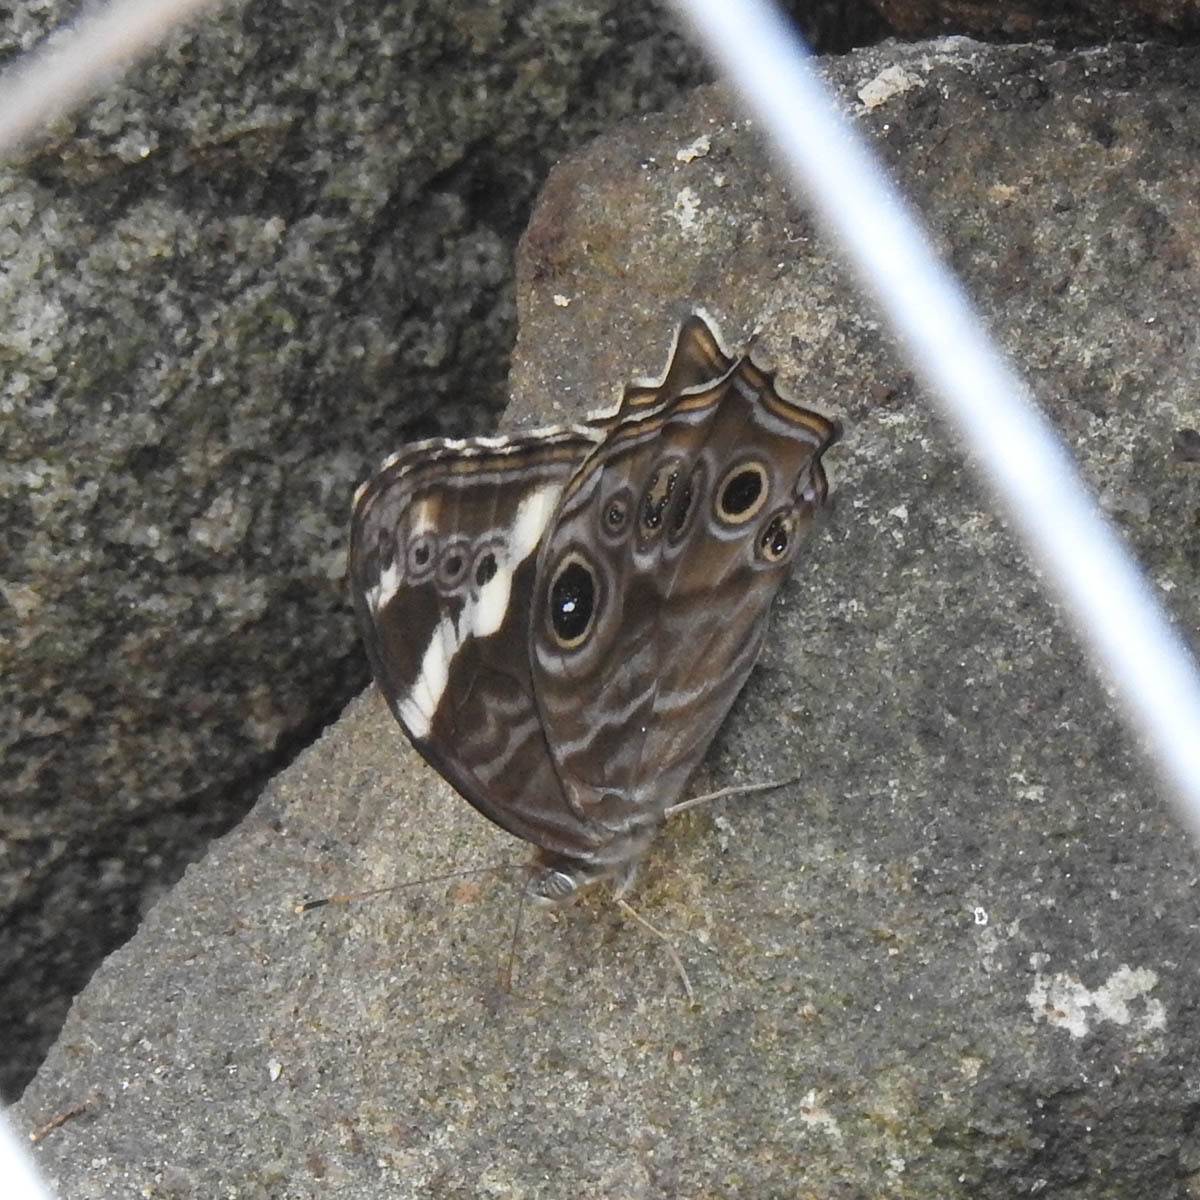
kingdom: Animalia
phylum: Arthropoda
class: Insecta
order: Lepidoptera
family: Nymphalidae
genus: Lethe
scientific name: Lethe rohria
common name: Common treebrown
